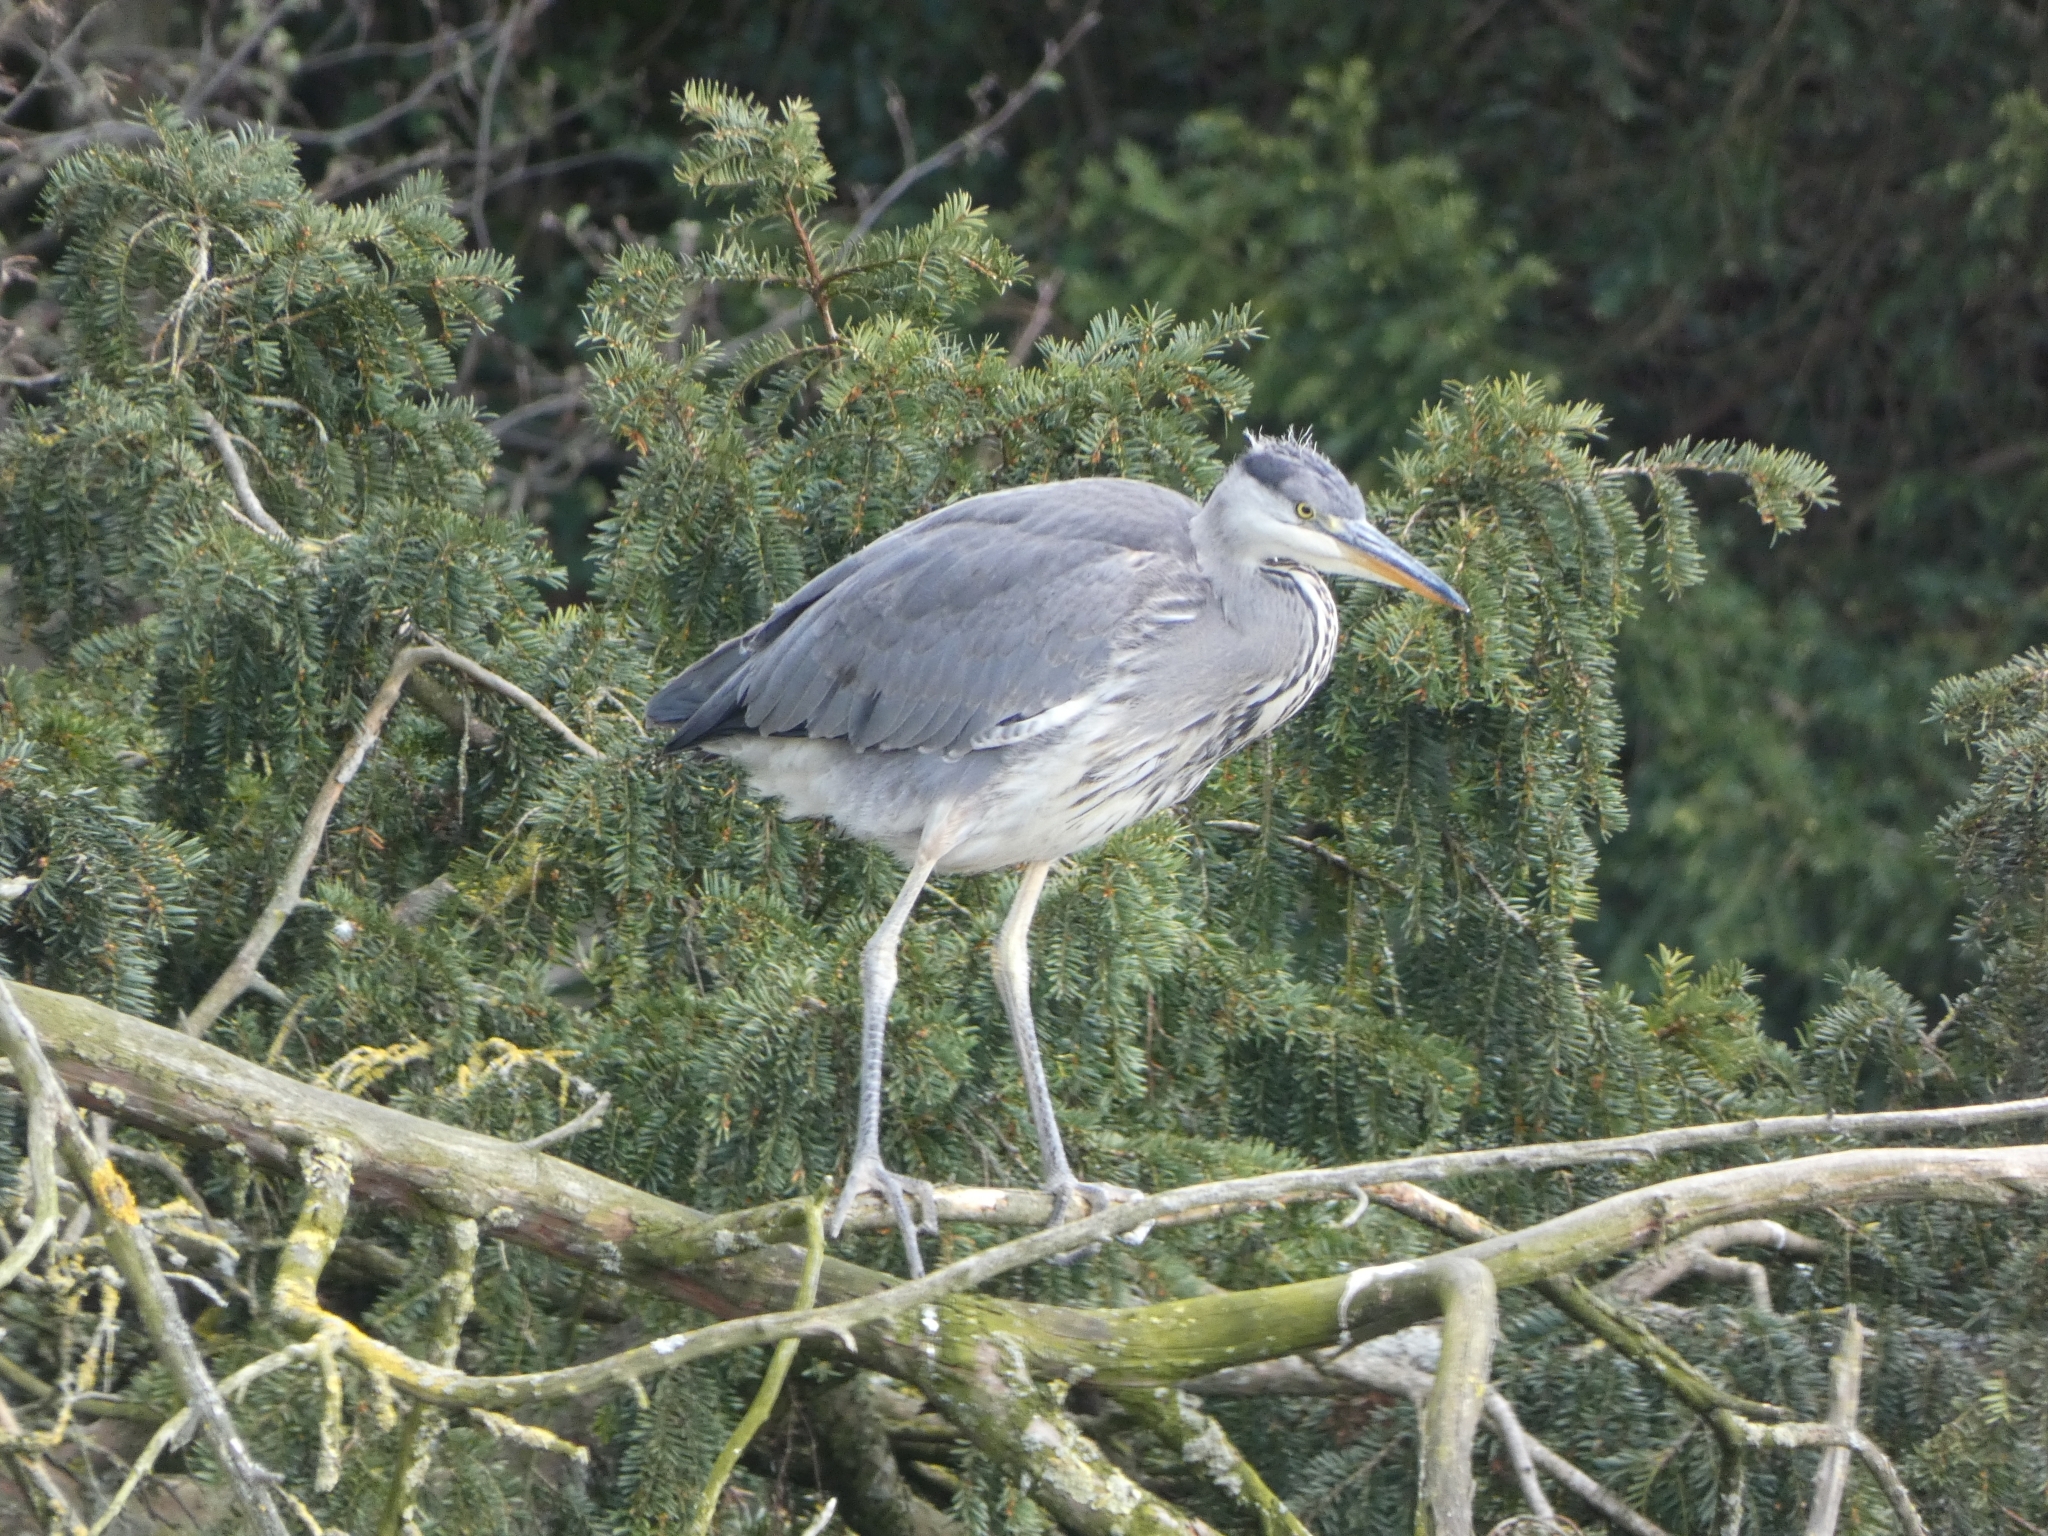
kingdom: Animalia
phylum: Chordata
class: Aves
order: Pelecaniformes
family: Ardeidae
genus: Ardea
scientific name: Ardea cinerea
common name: Grey heron
